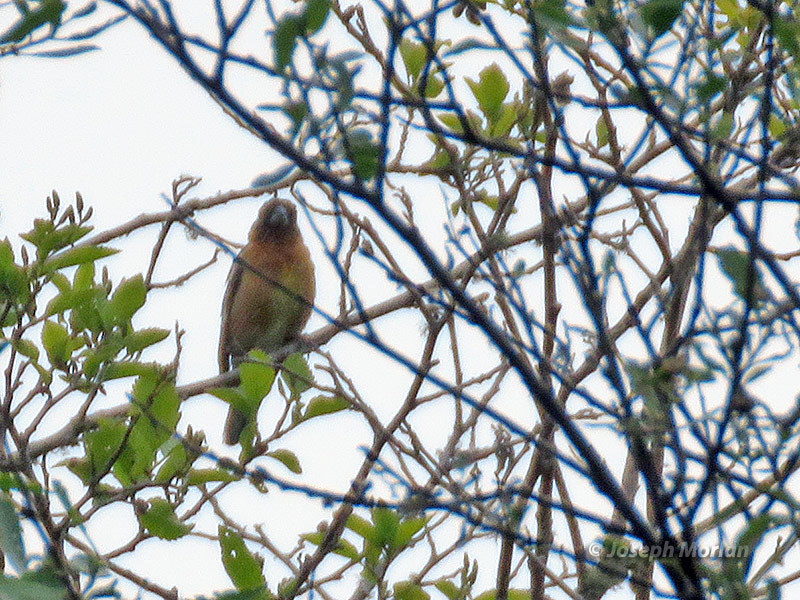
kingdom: Animalia
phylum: Chordata
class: Aves
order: Passeriformes
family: Cardinalidae
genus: Pheucticus
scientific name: Pheucticus melanocephalus
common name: Black-headed grosbeak
